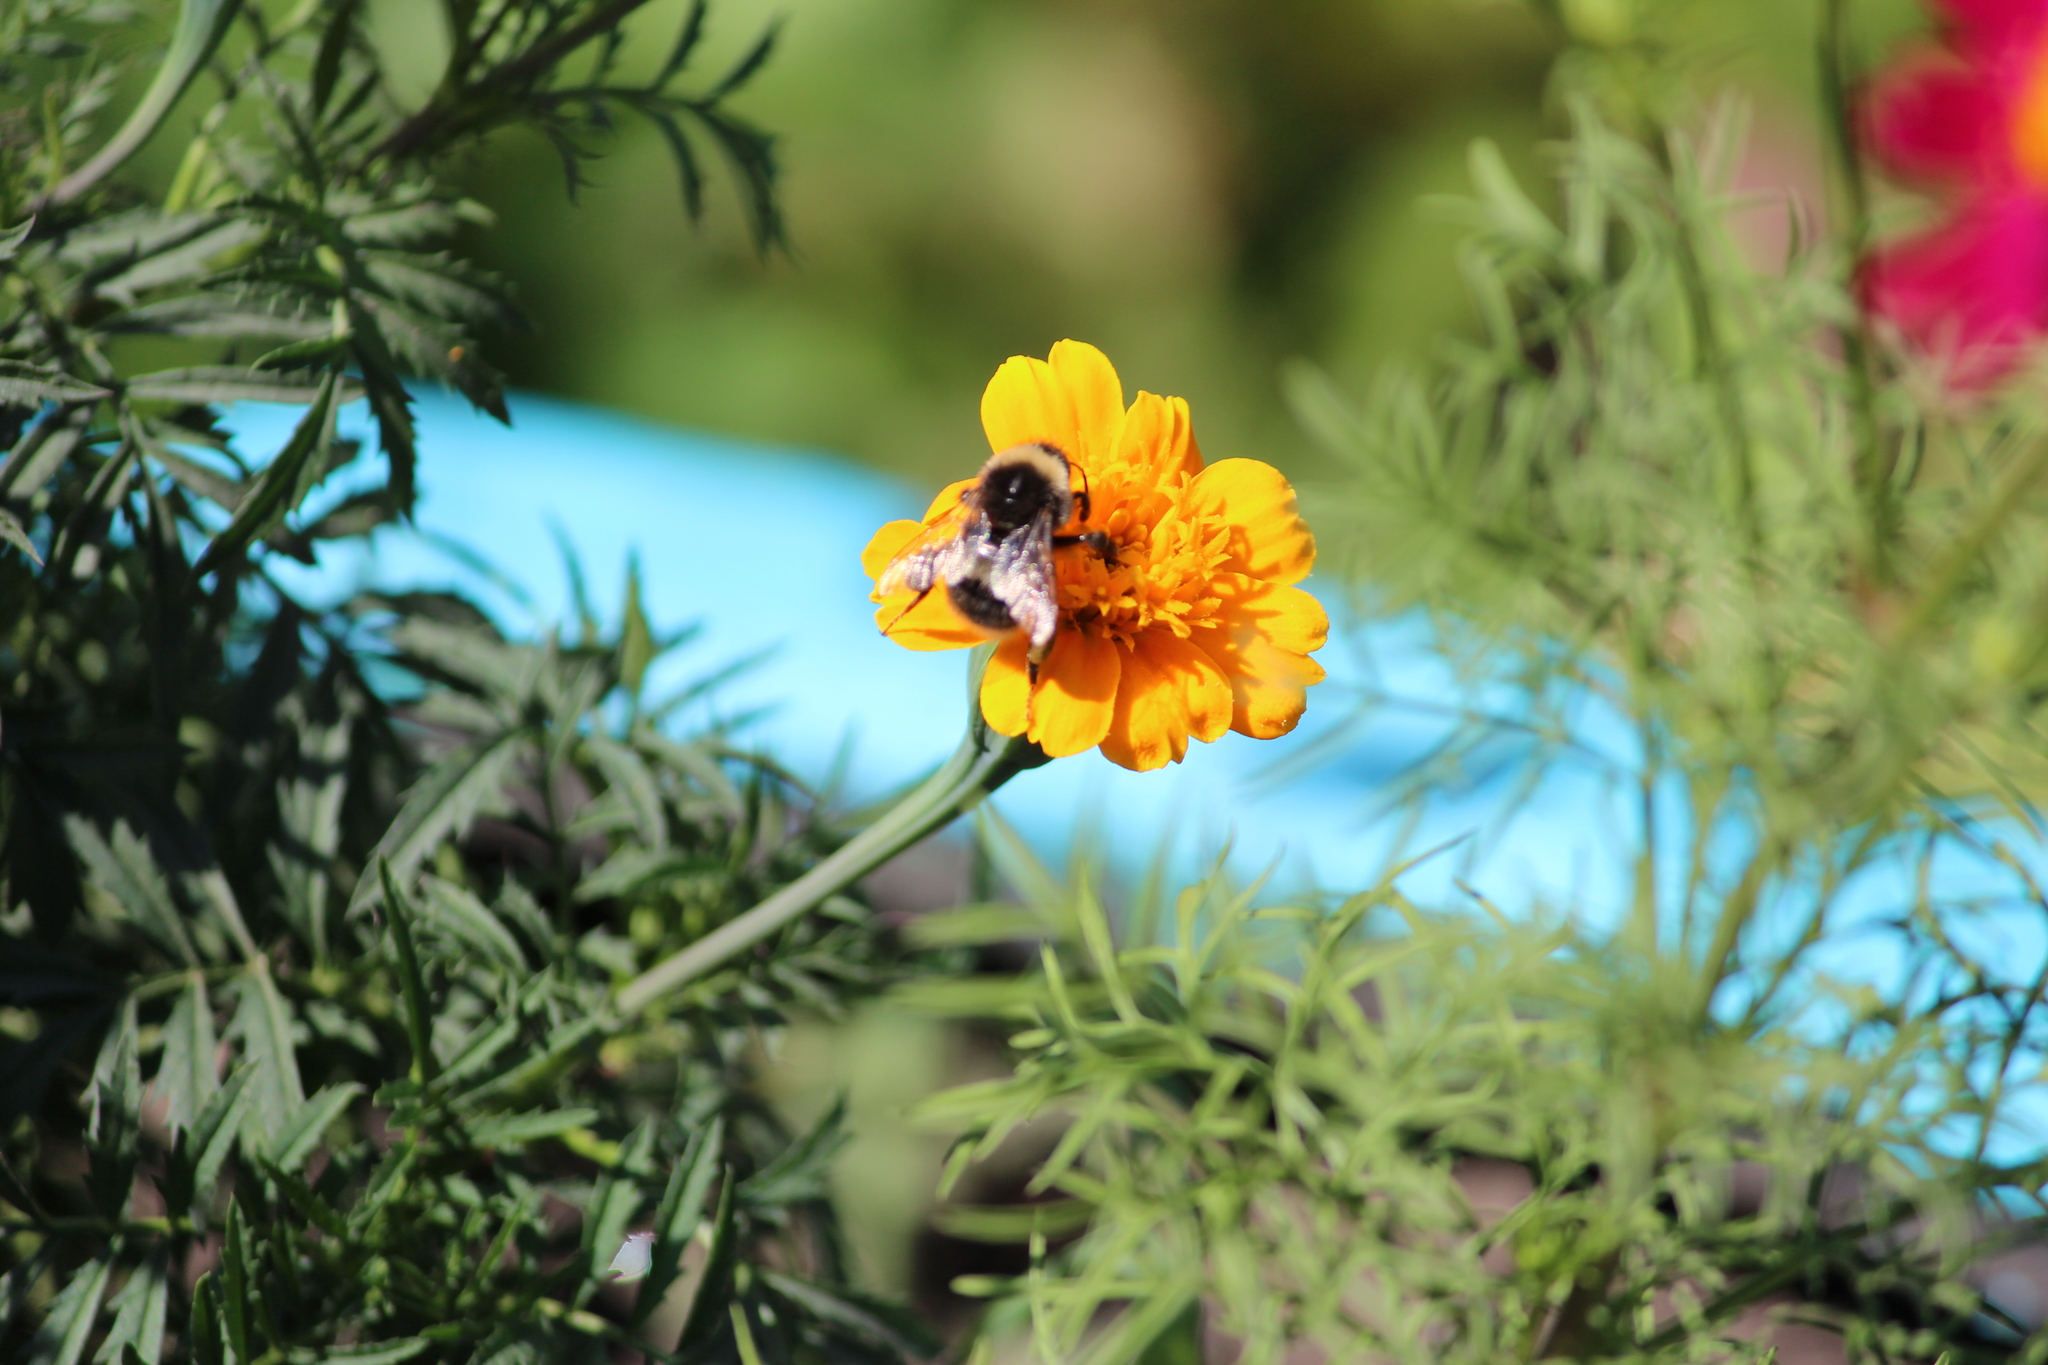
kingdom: Animalia
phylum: Arthropoda
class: Insecta
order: Hymenoptera
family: Apidae
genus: Bombus
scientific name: Bombus
